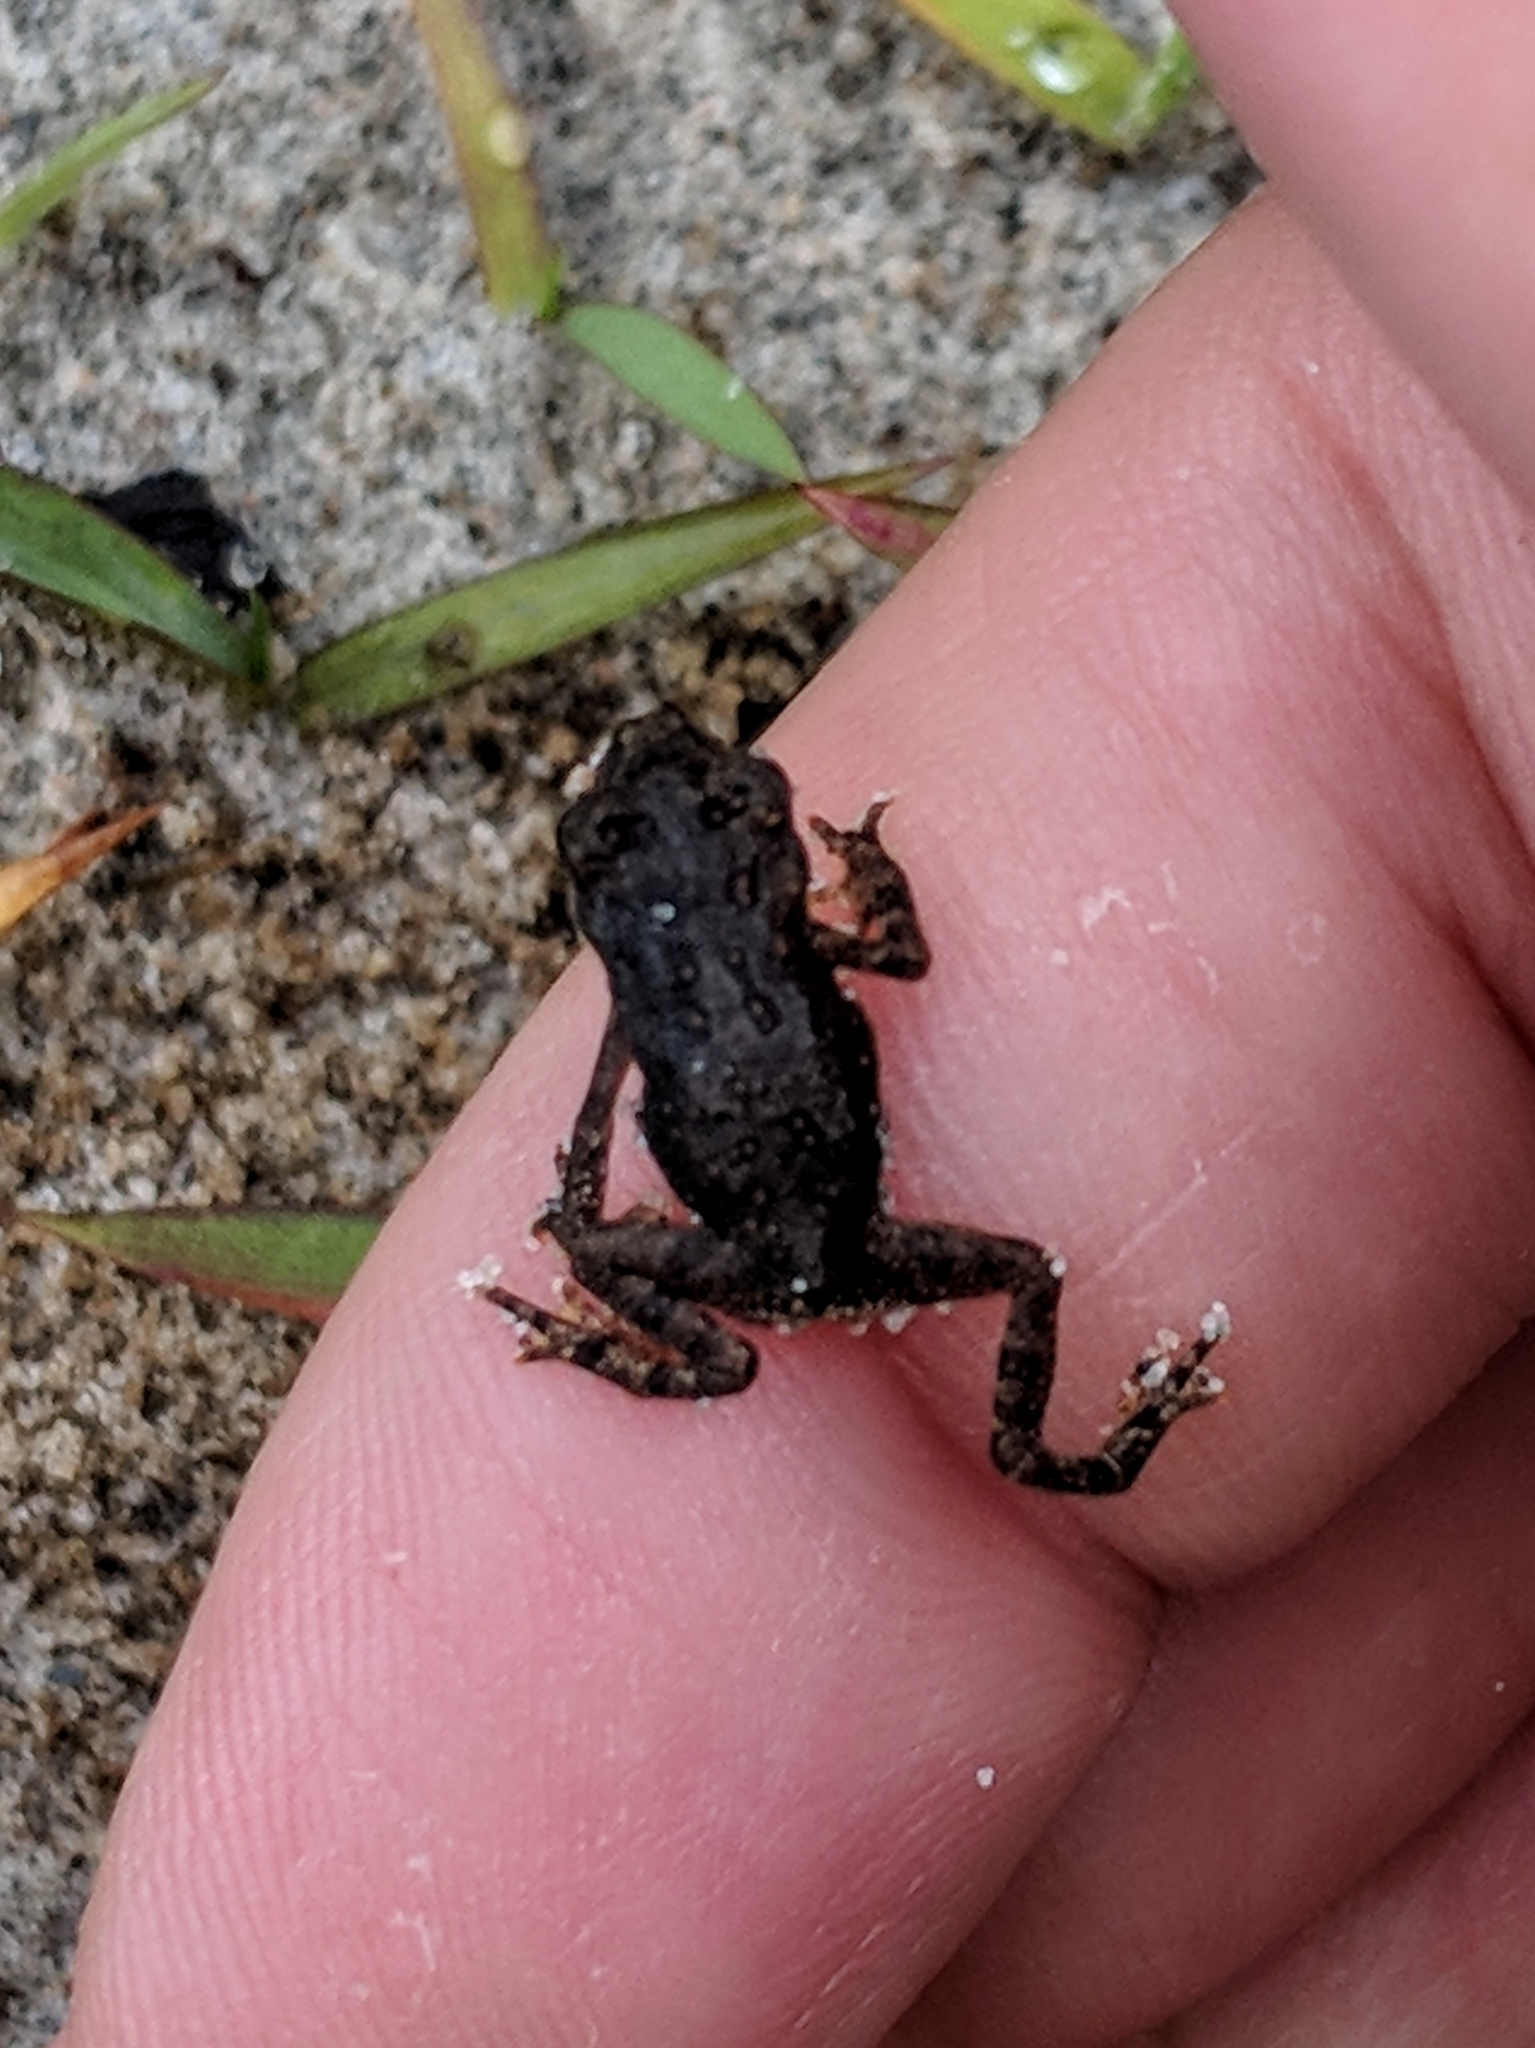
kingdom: Animalia
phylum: Chordata
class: Amphibia
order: Anura
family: Bufonidae
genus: Anaxyrus
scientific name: Anaxyrus americanus
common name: American toad
